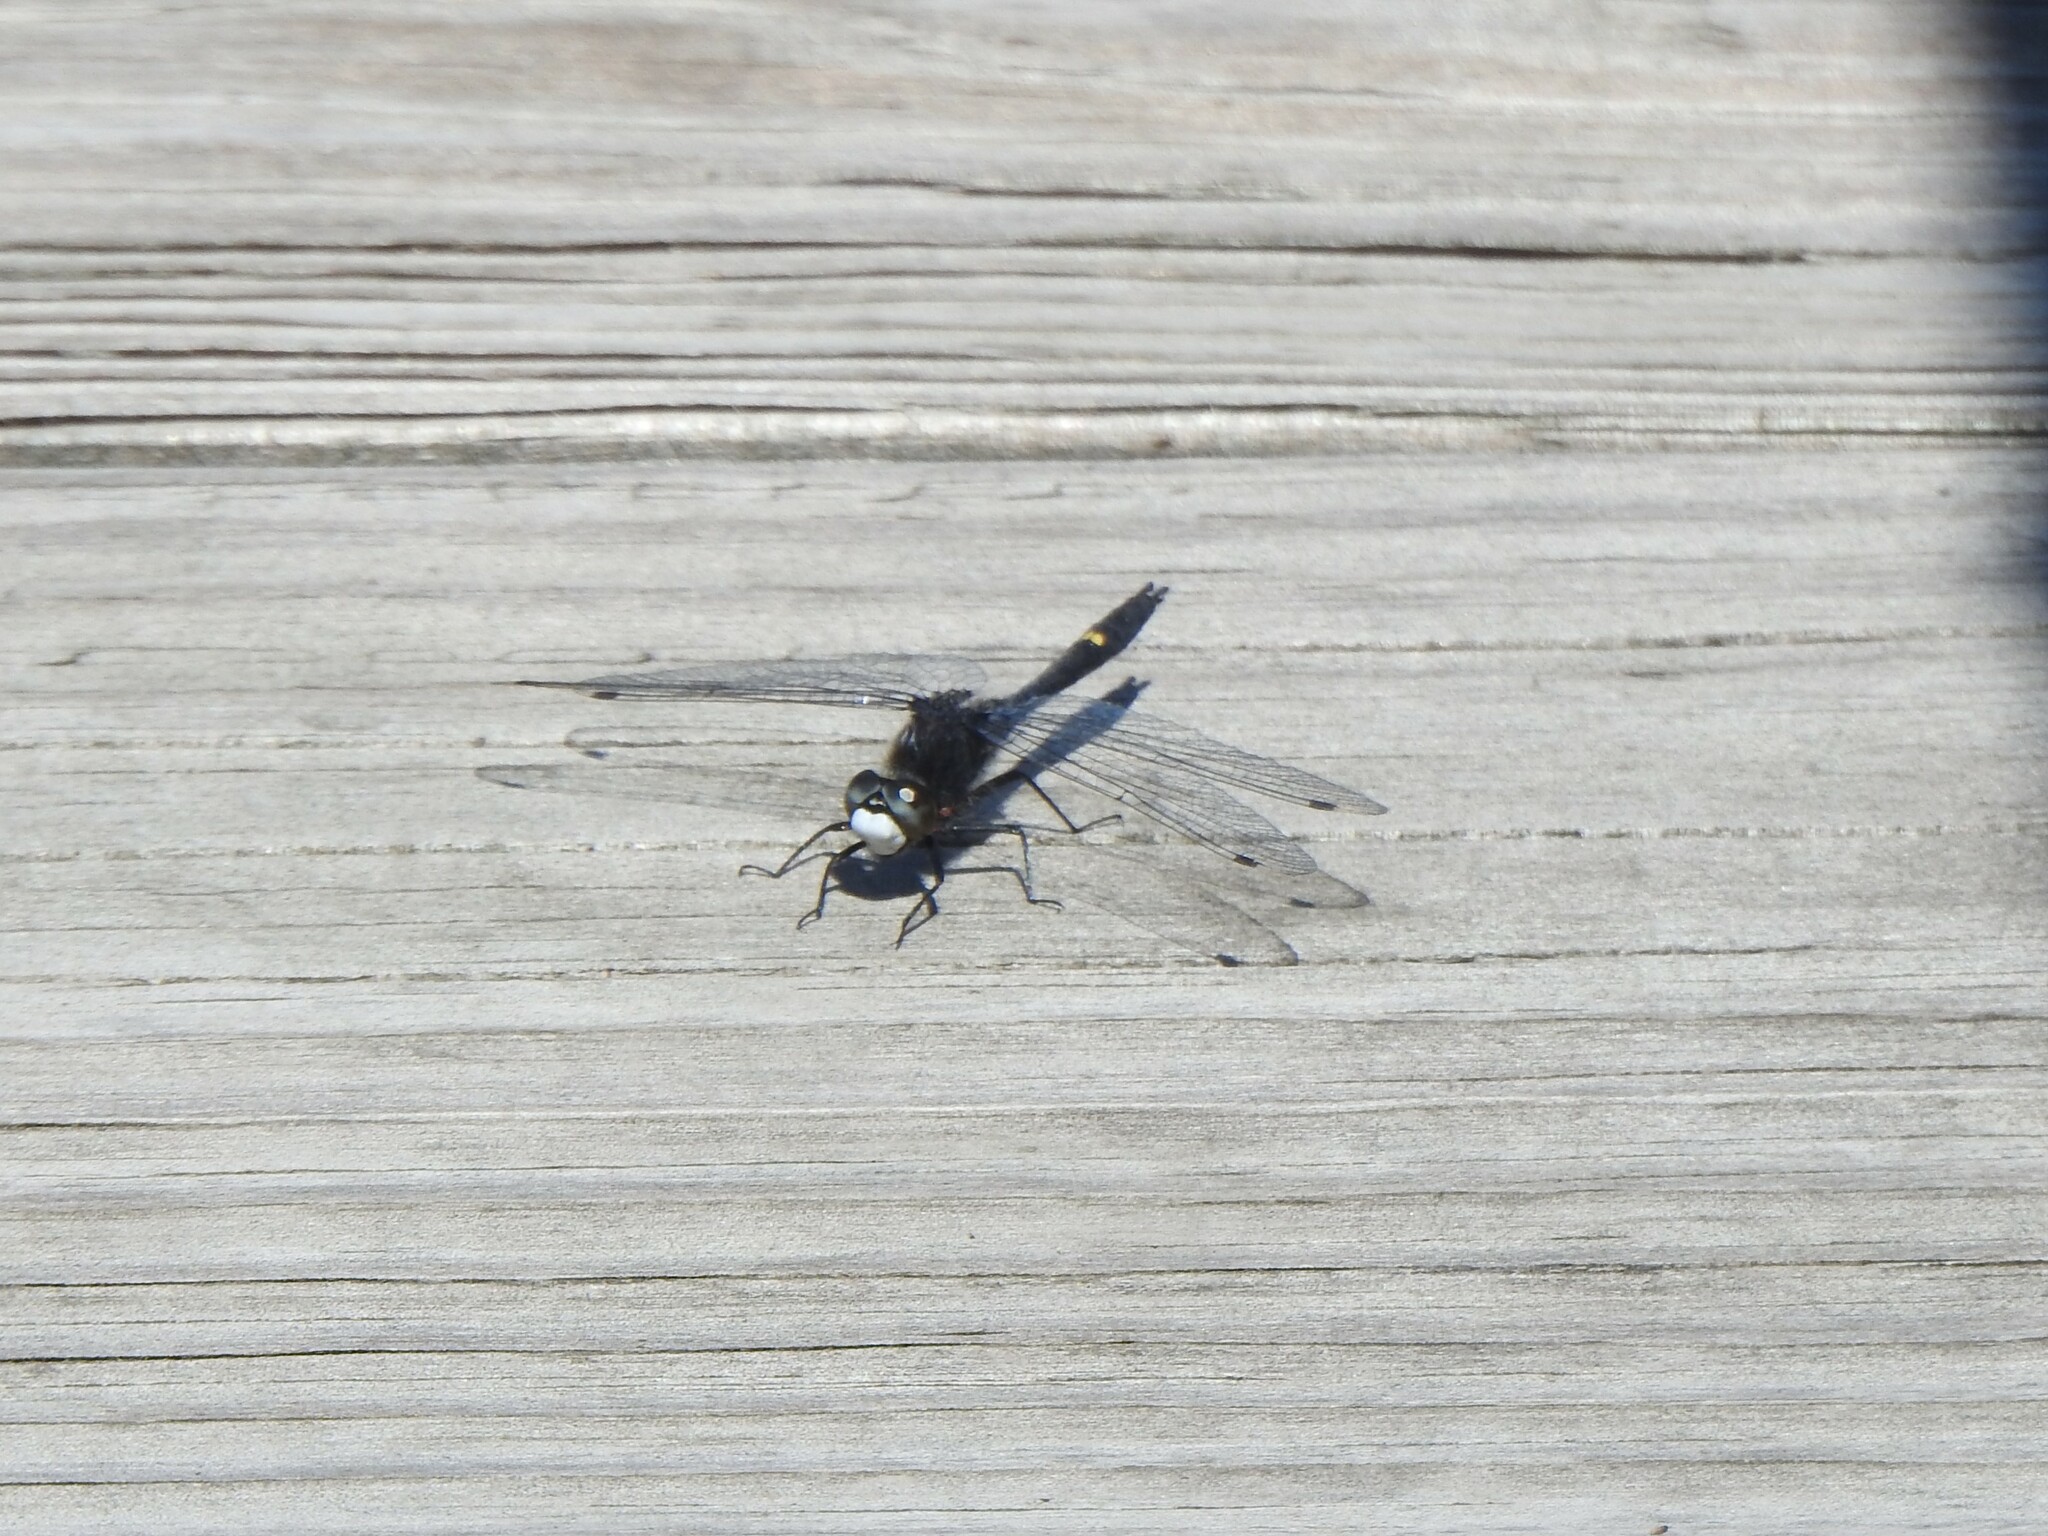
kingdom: Animalia
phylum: Arthropoda
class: Insecta
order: Odonata
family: Libellulidae
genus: Leucorrhinia
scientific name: Leucorrhinia intacta
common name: Dot-tailed whiteface
